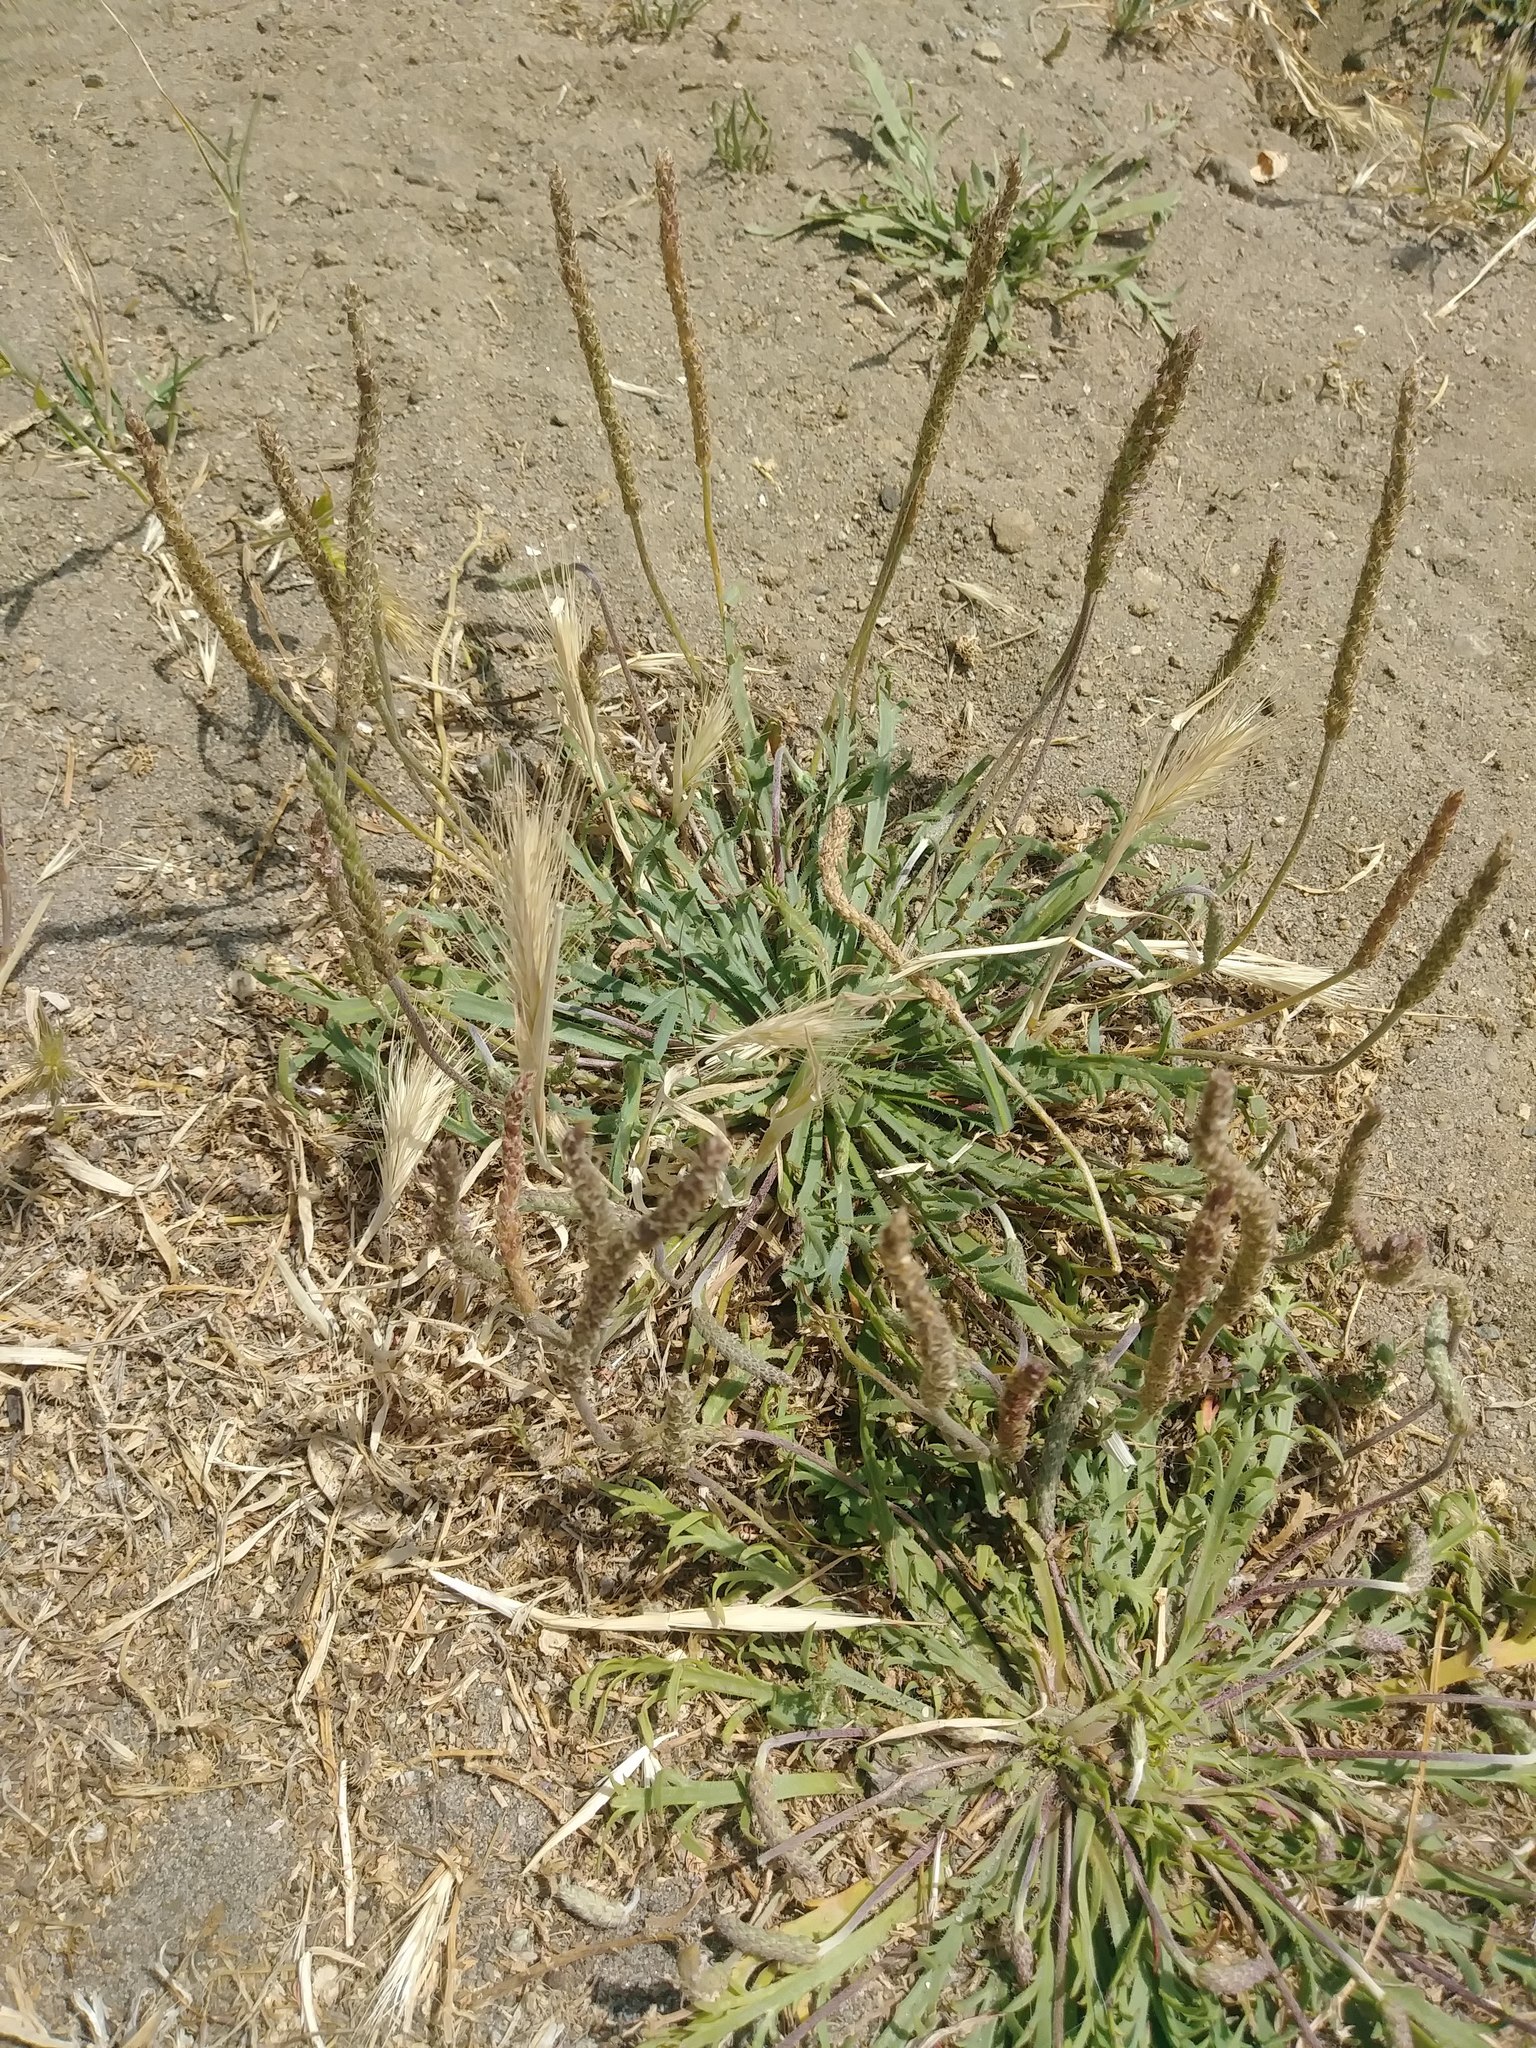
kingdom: Plantae
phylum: Tracheophyta
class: Magnoliopsida
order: Lamiales
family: Plantaginaceae
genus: Plantago
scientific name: Plantago coronopus
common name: Buck's-horn plantain
